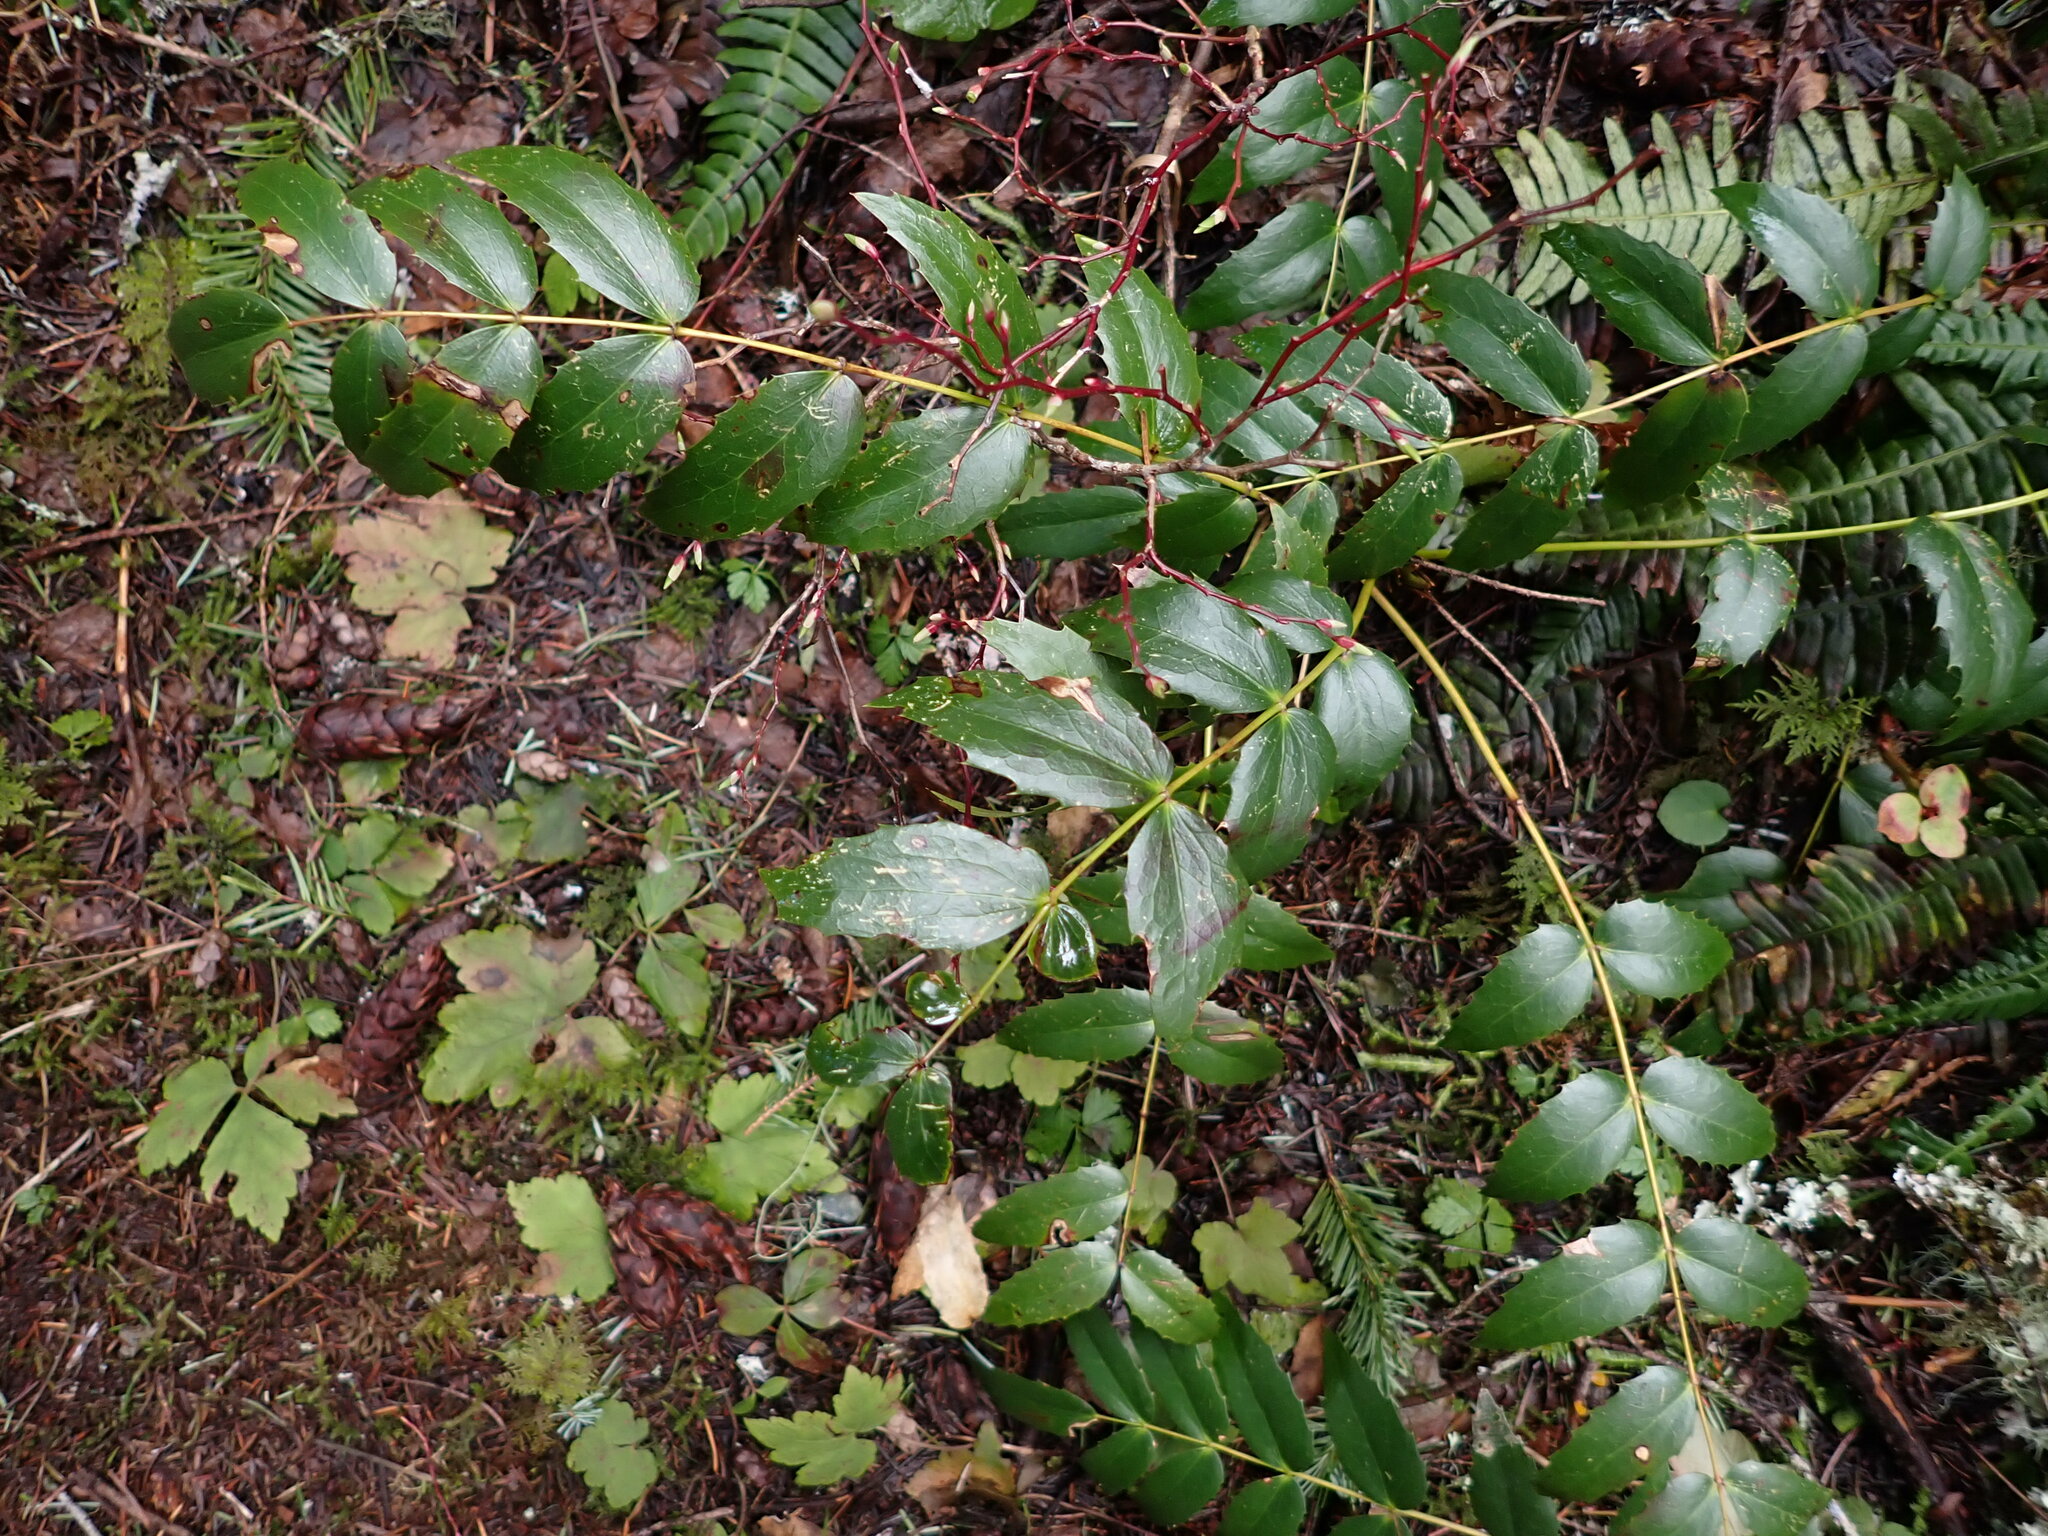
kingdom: Plantae
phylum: Tracheophyta
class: Magnoliopsida
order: Ranunculales
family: Berberidaceae
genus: Mahonia
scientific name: Mahonia nervosa
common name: Cascade oregon-grape
